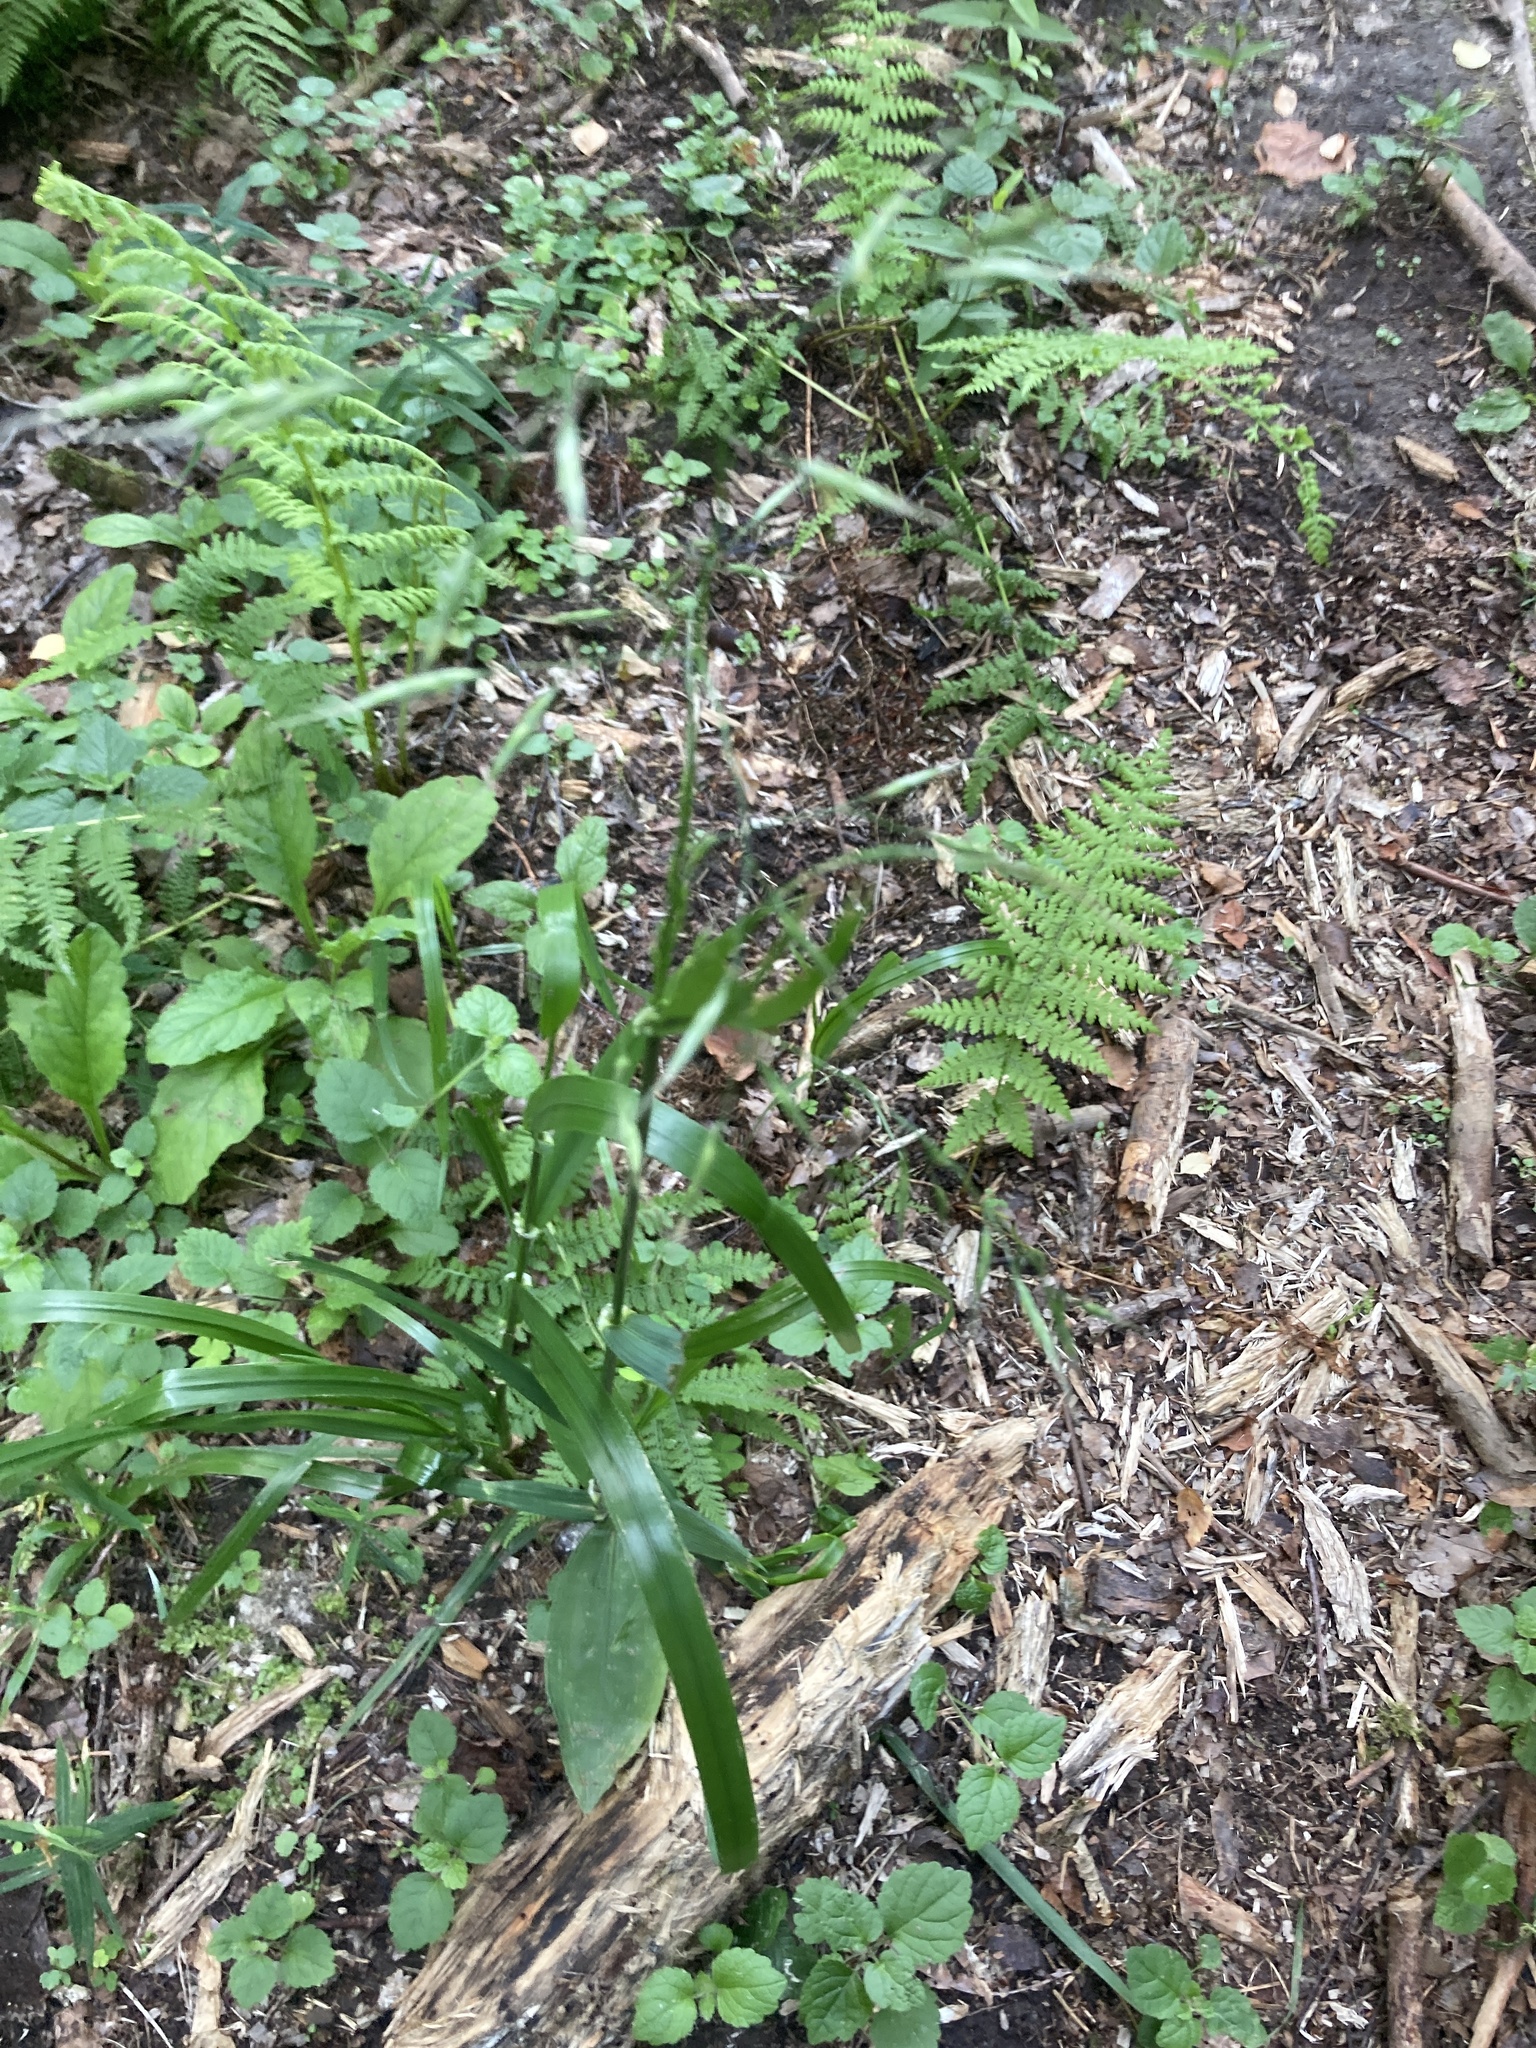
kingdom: Plantae
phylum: Tracheophyta
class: Liliopsida
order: Poales
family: Poaceae
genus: Lolium
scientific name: Lolium giganteum
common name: Giant fescue
